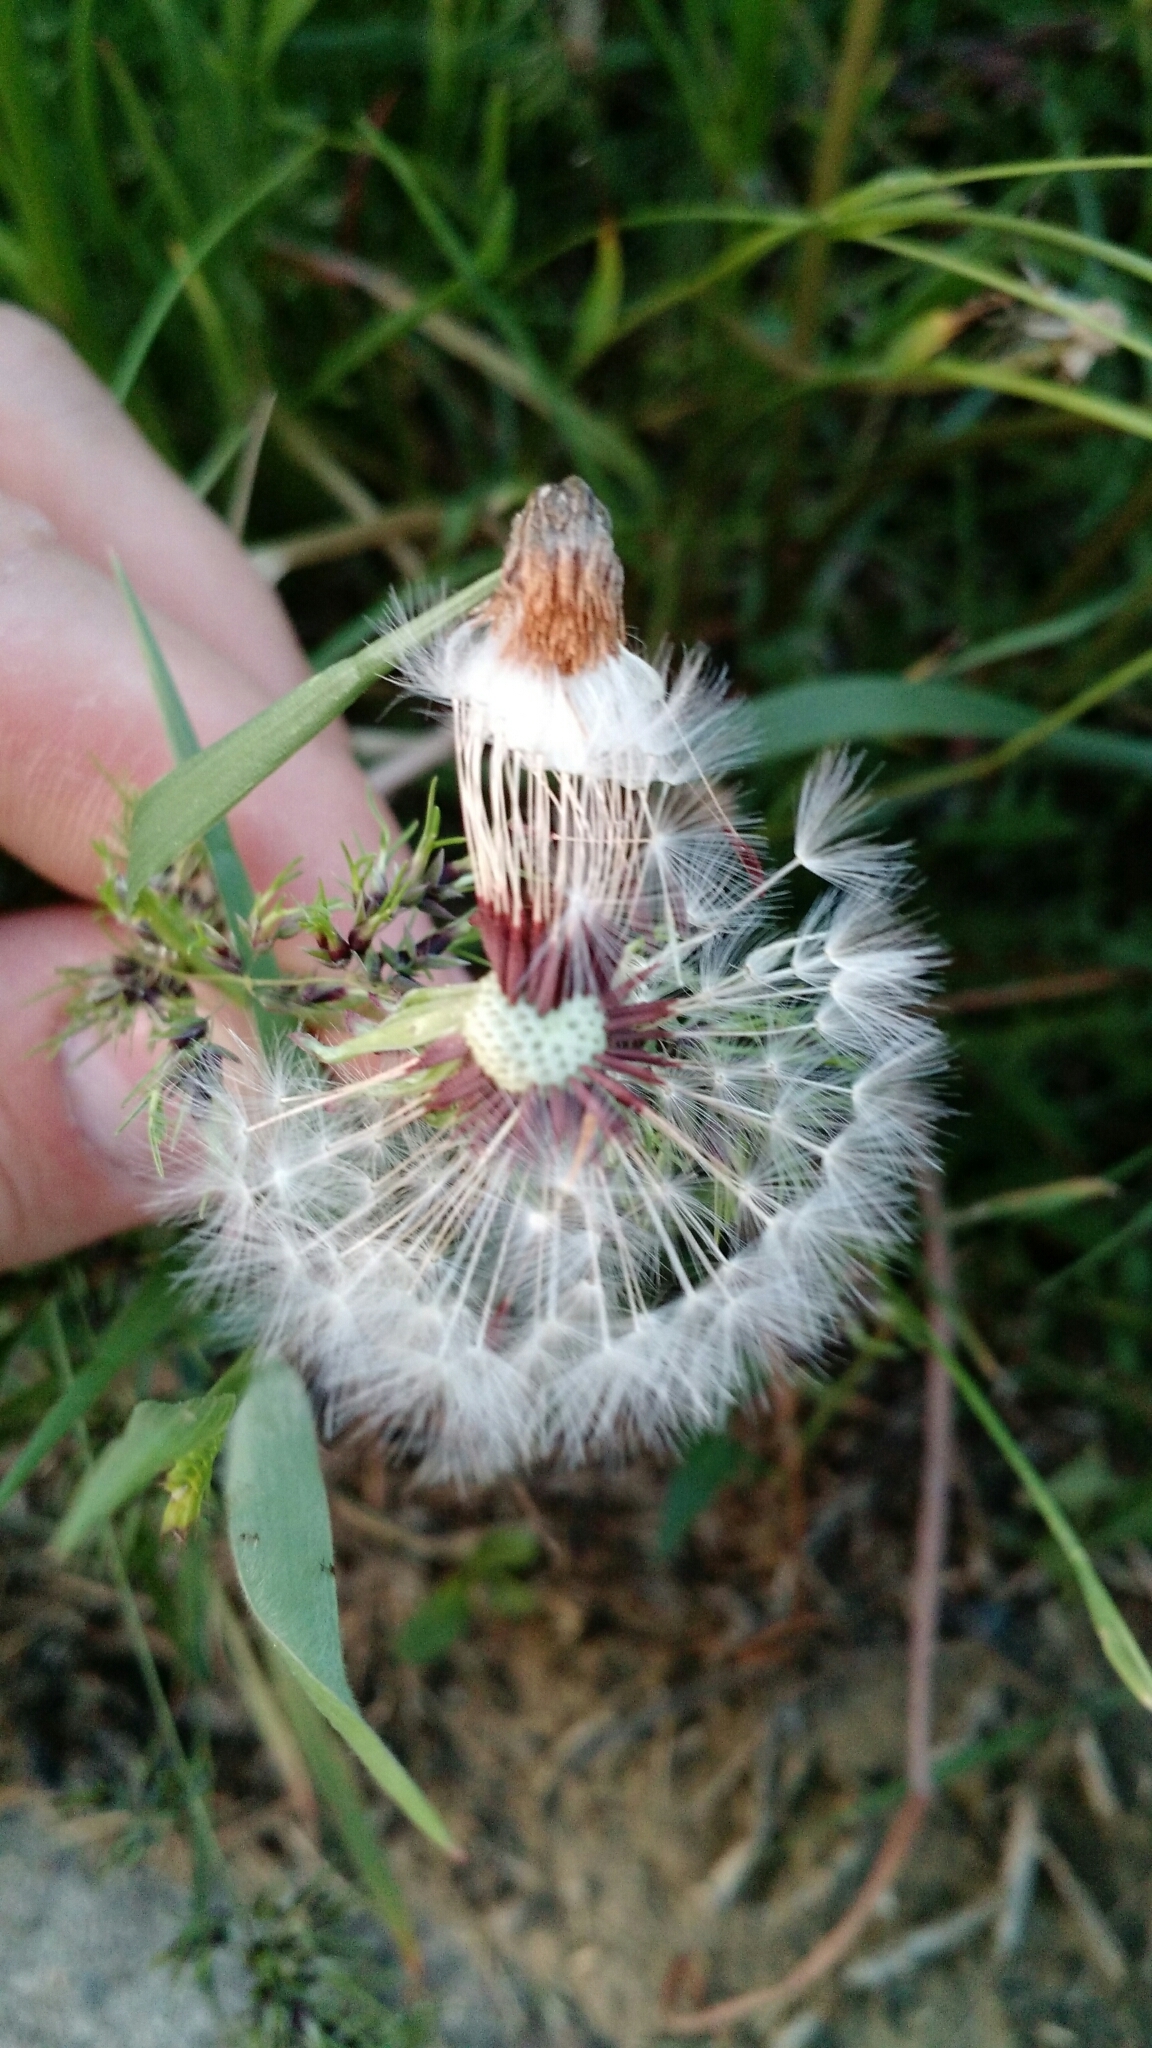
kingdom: Plantae
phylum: Tracheophyta
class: Magnoliopsida
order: Asterales
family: Asteraceae
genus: Taraxacum
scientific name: Taraxacum erythrospermum
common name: Rock dandelion
